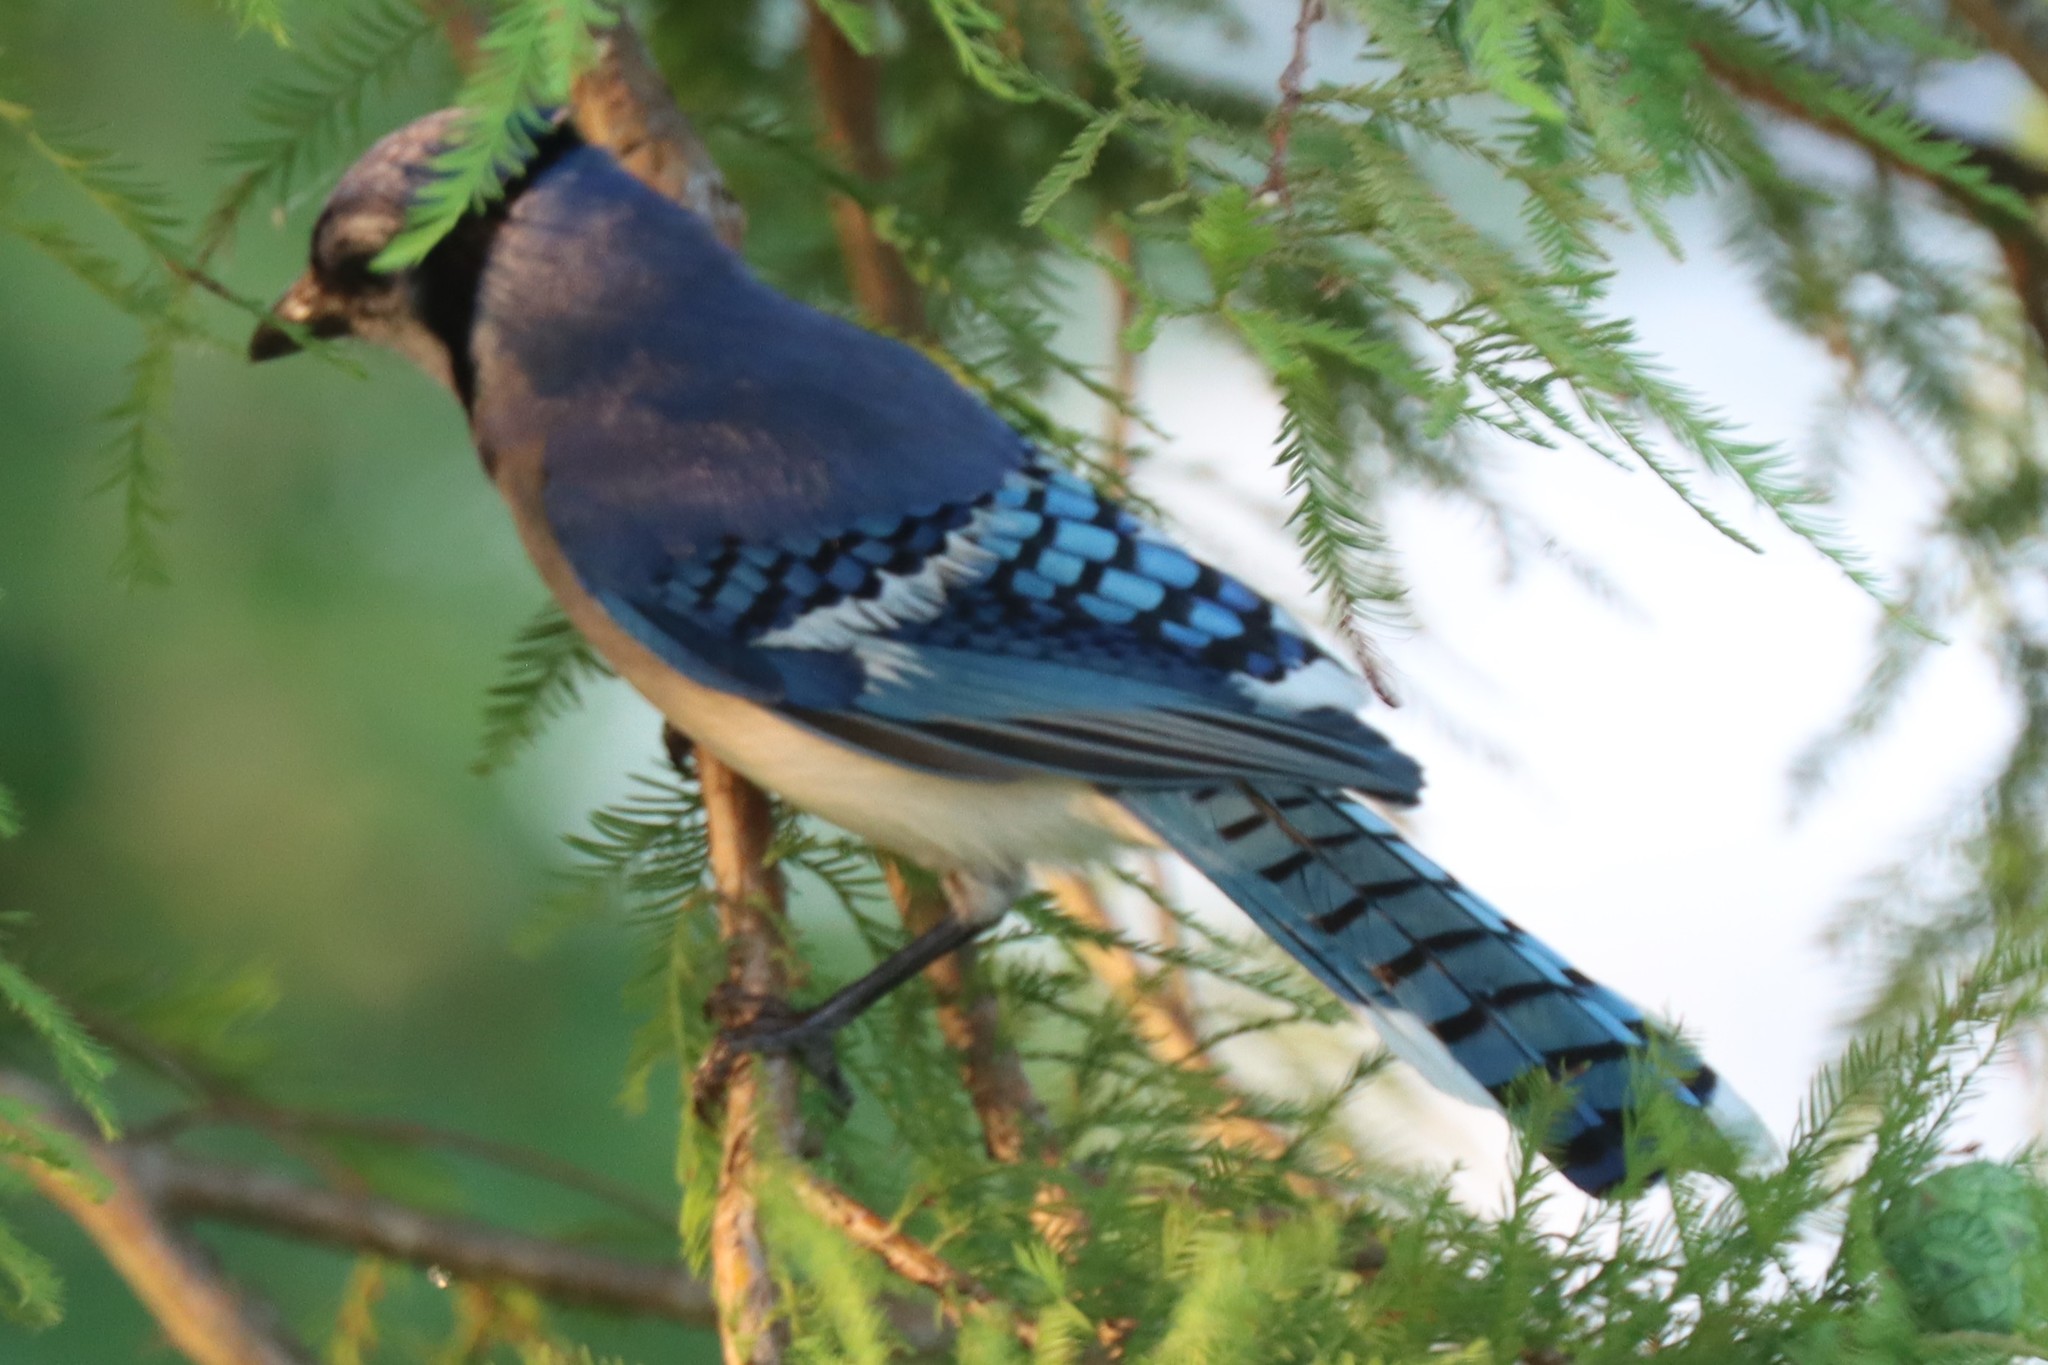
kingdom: Animalia
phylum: Chordata
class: Aves
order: Passeriformes
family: Corvidae
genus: Cyanocitta
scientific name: Cyanocitta cristata
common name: Blue jay
